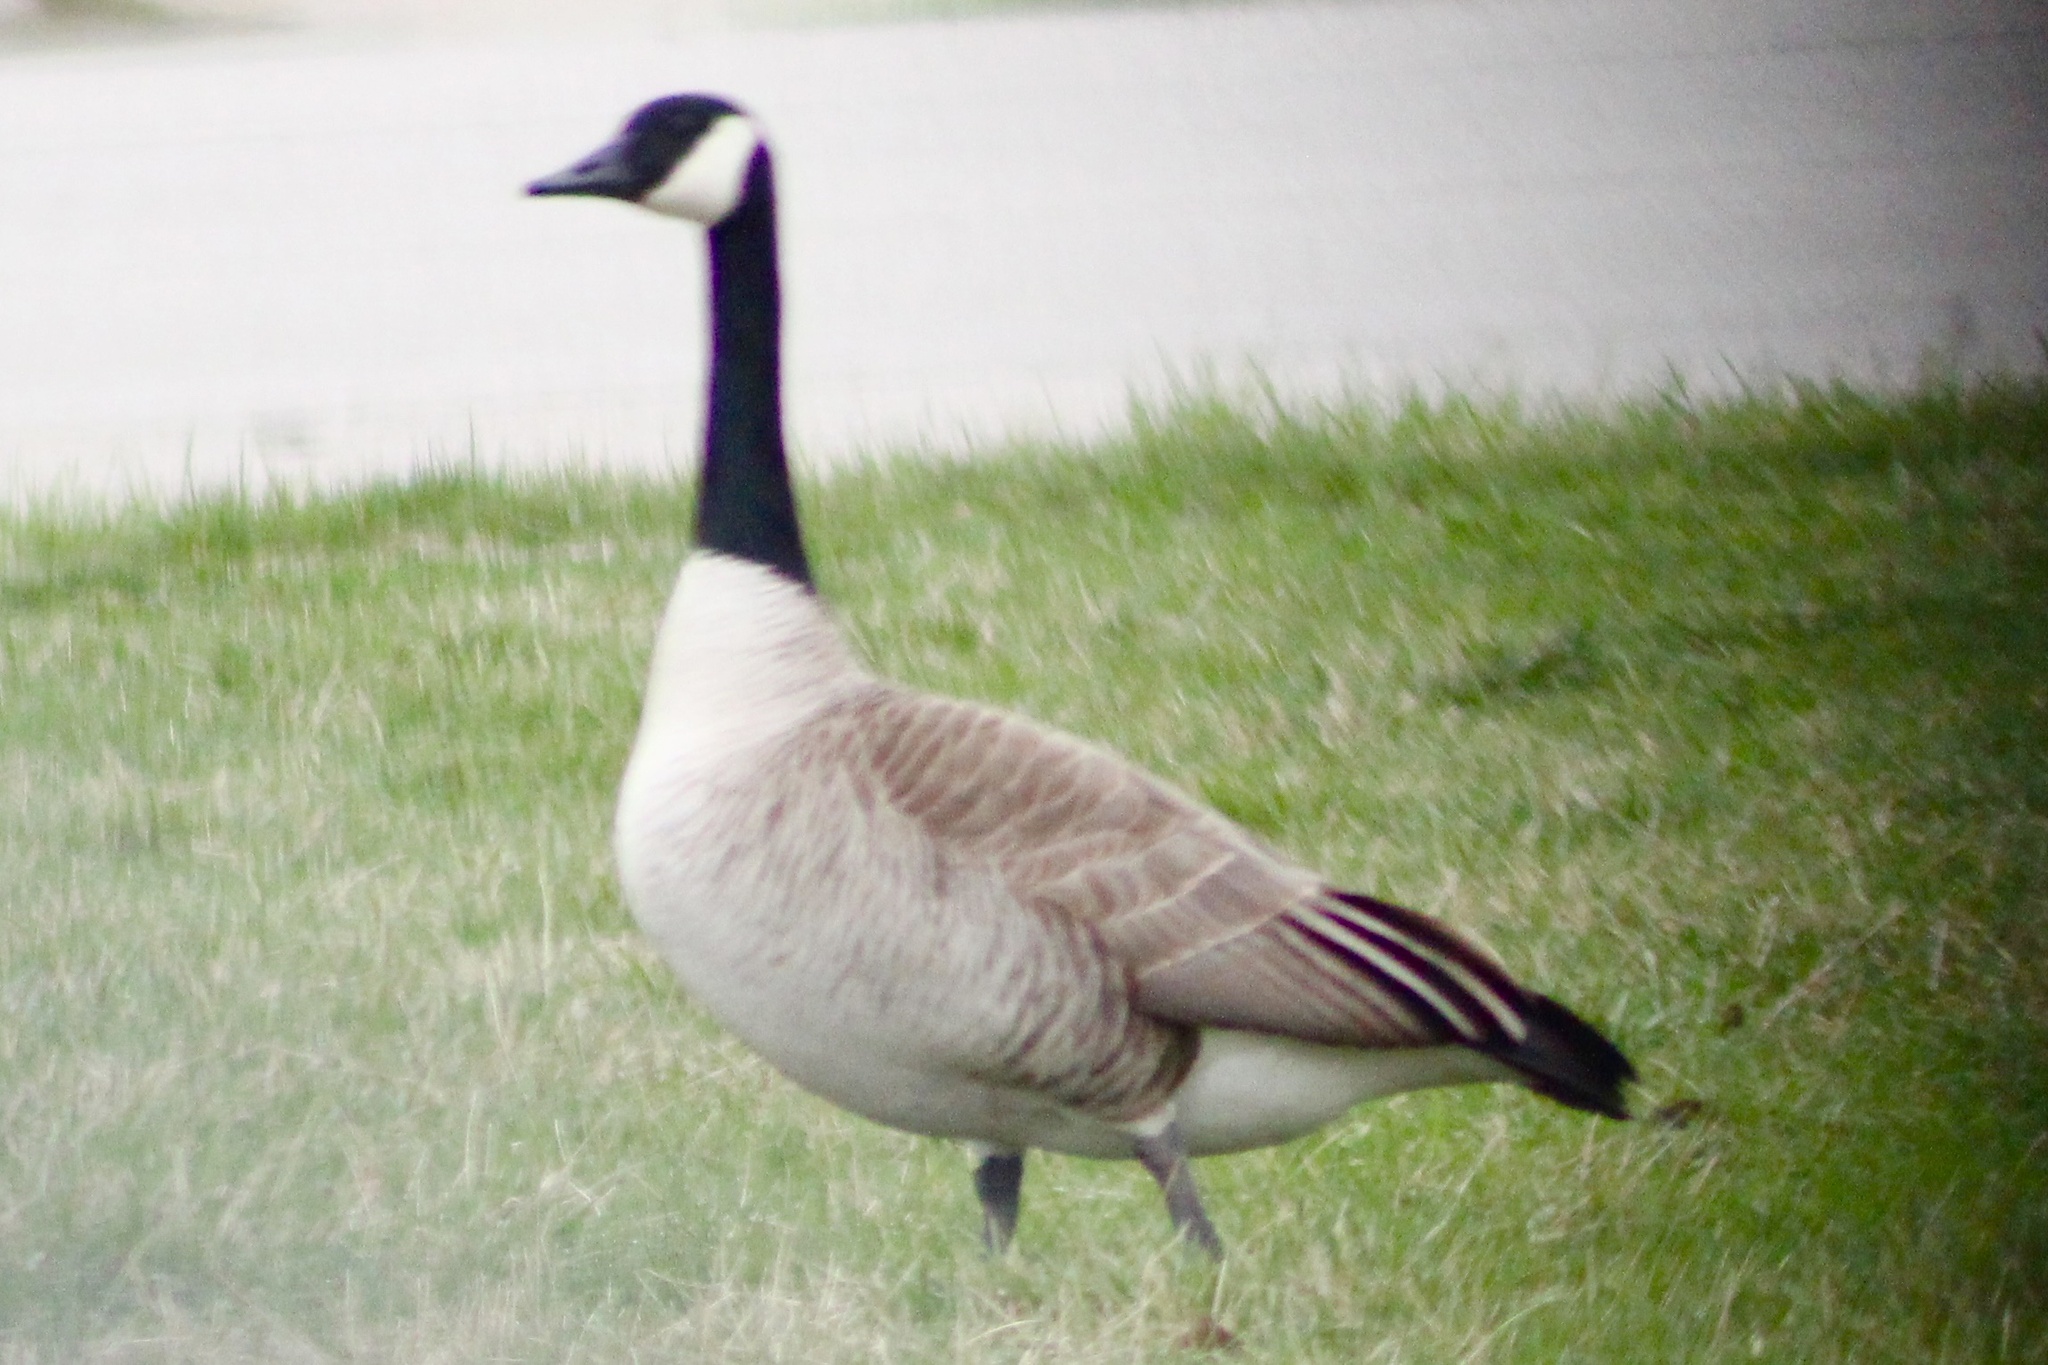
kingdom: Animalia
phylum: Chordata
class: Aves
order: Anseriformes
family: Anatidae
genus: Branta
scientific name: Branta canadensis
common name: Canada goose
